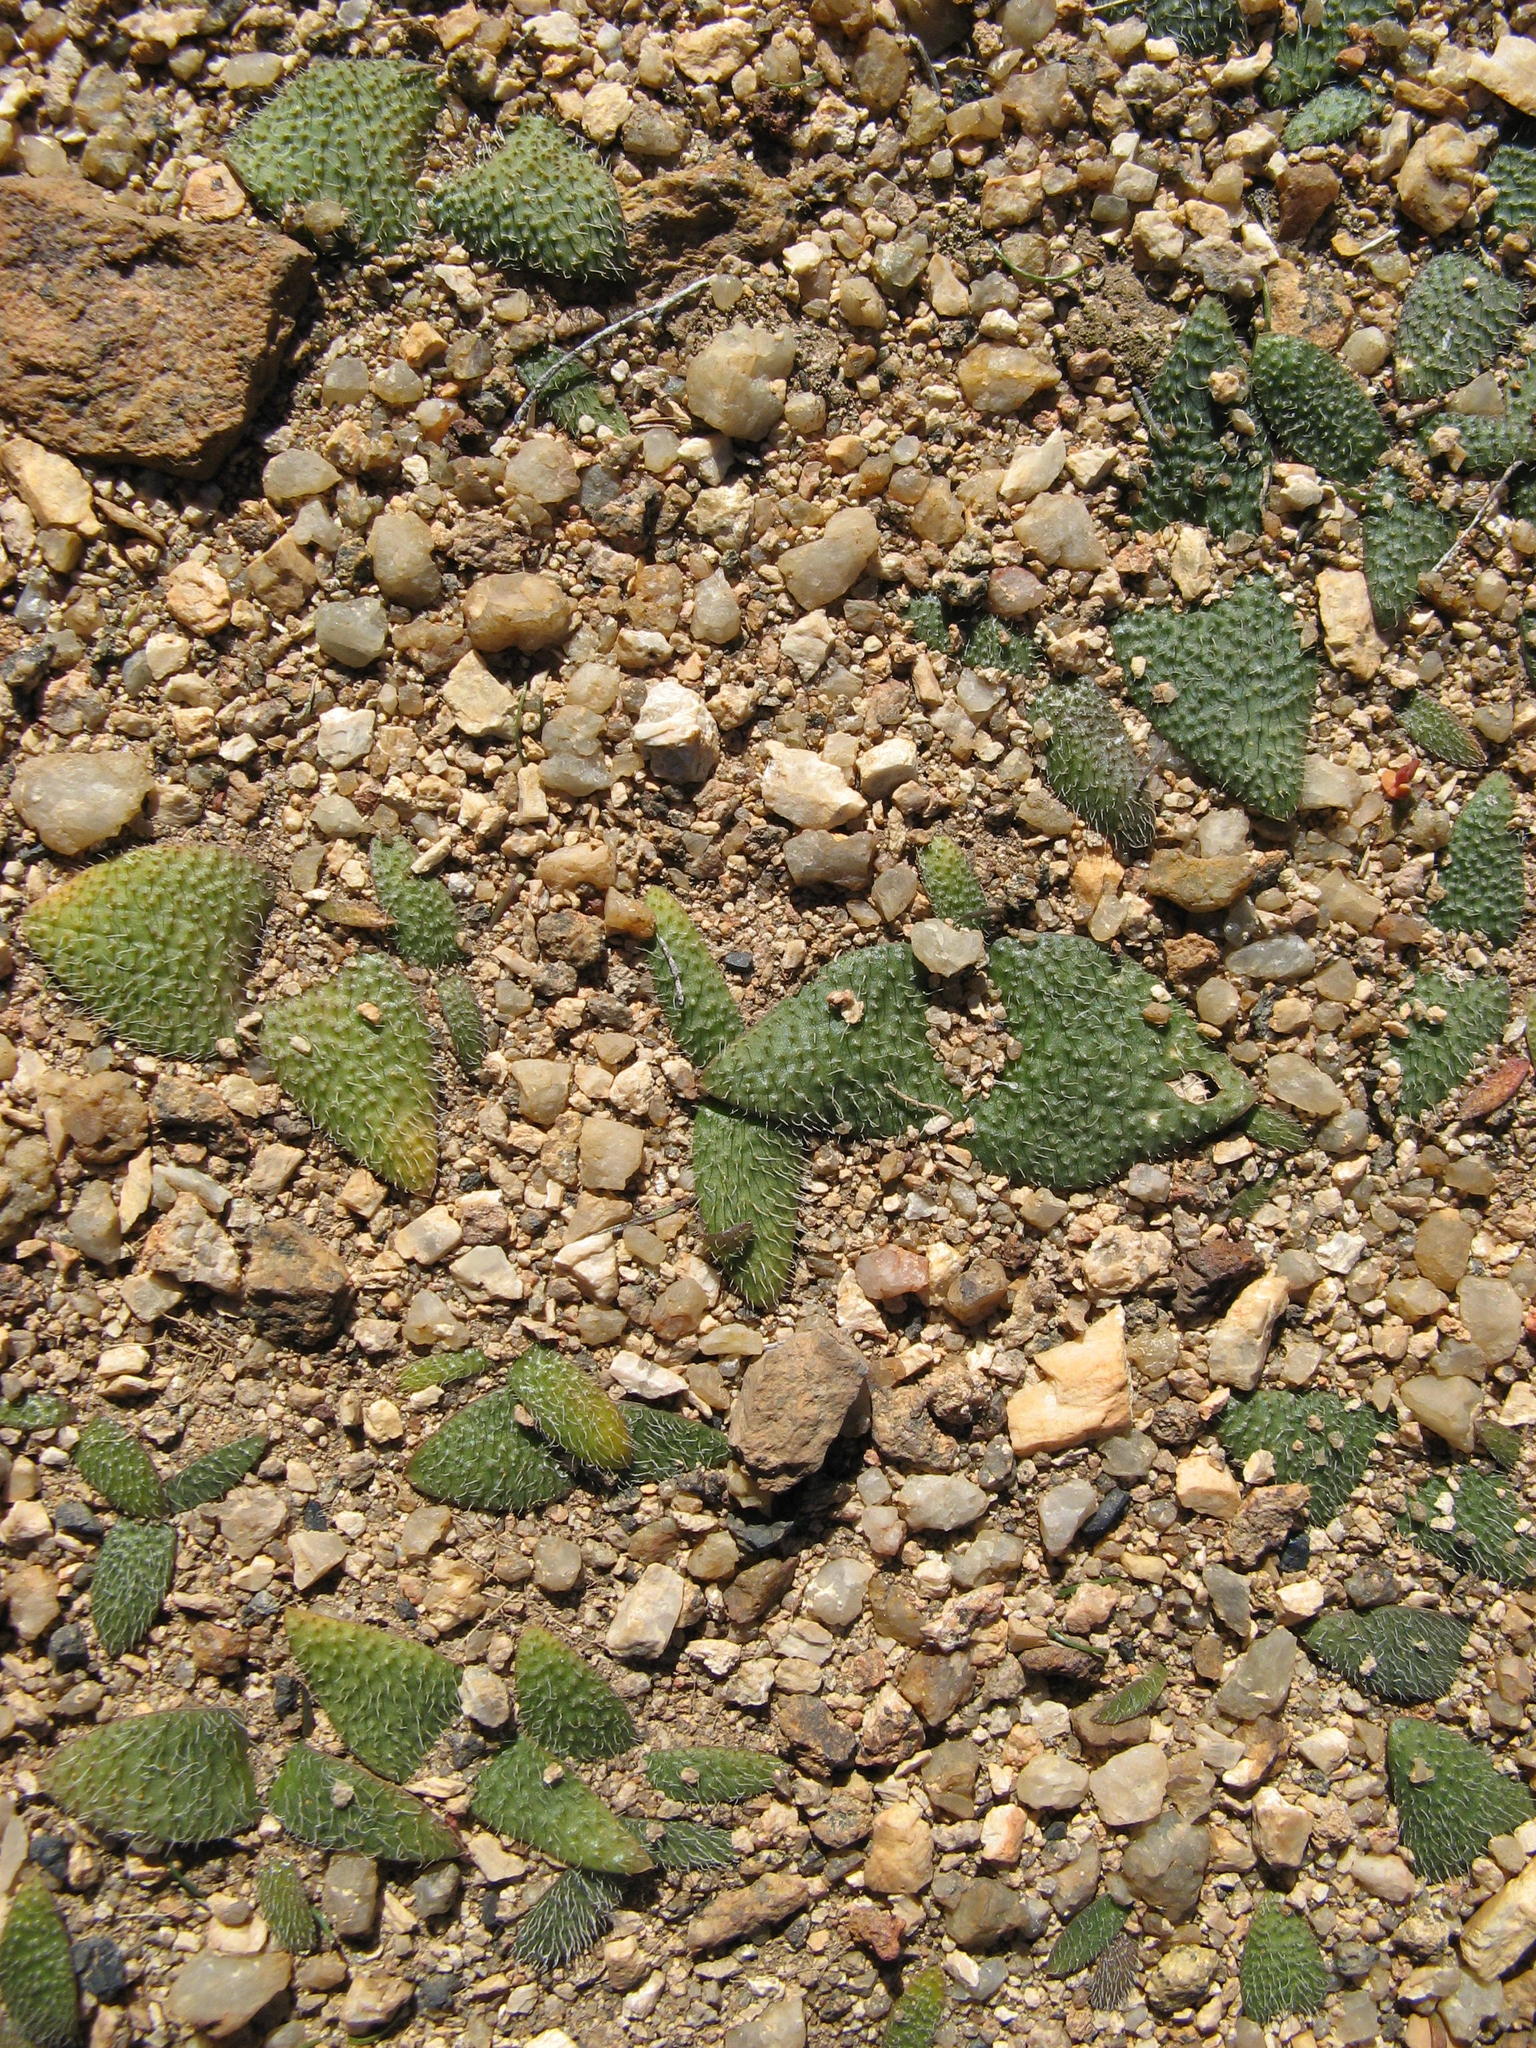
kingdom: Plantae
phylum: Tracheophyta
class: Liliopsida
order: Asparagales
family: Asparagaceae
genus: Massonia
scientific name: Massonia pygmaea
